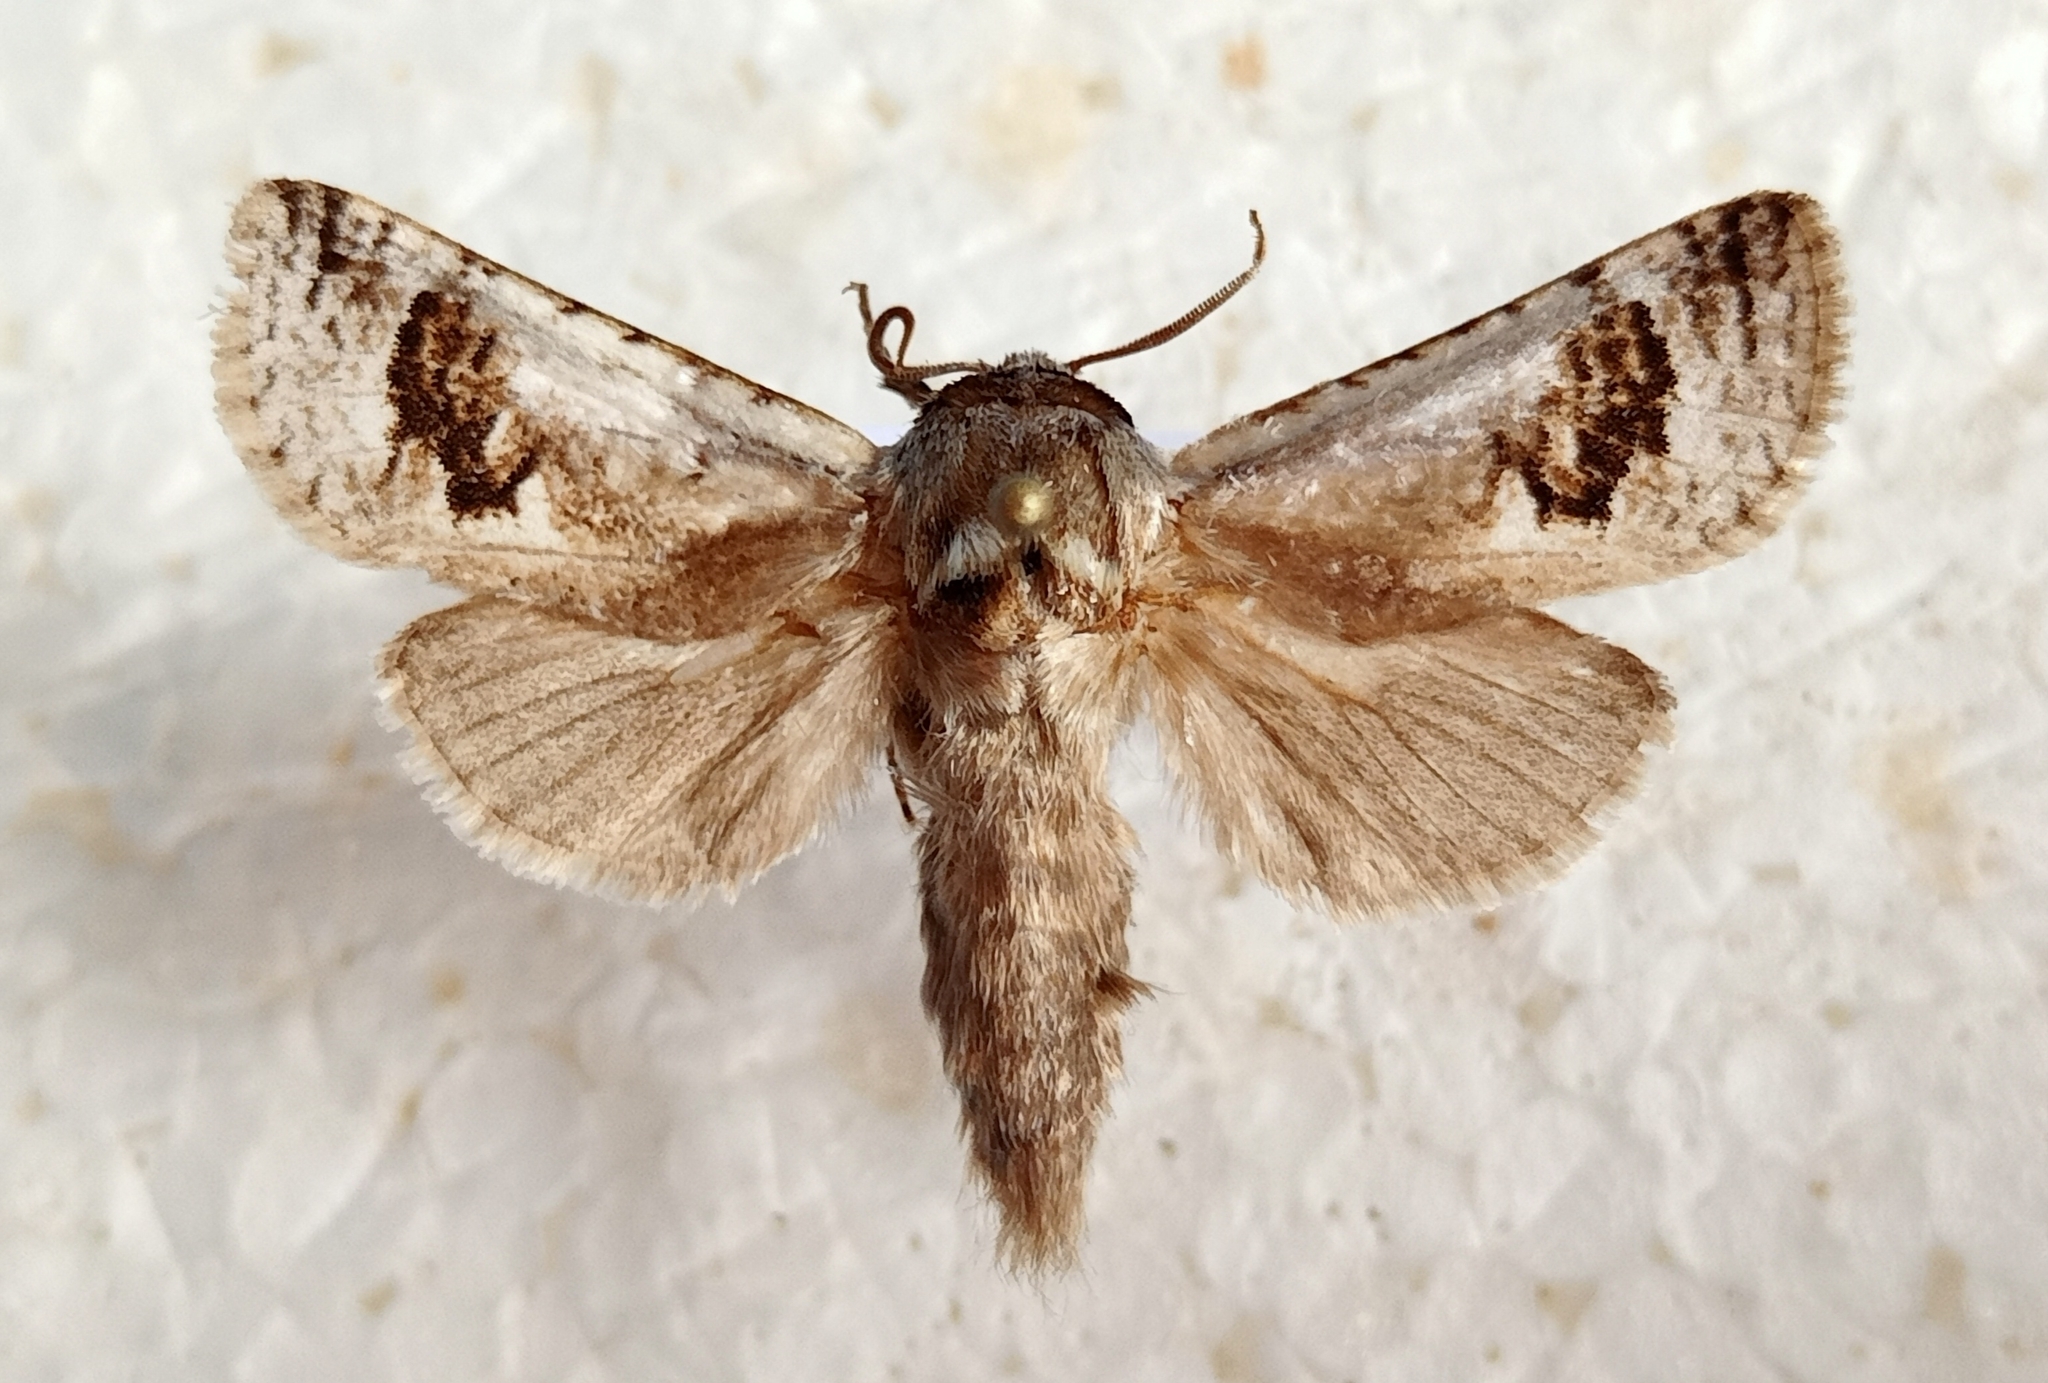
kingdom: Animalia
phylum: Arthropoda
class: Insecta
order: Lepidoptera
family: Cossidae
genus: Parahypopta
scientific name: Parahypopta caestrum
